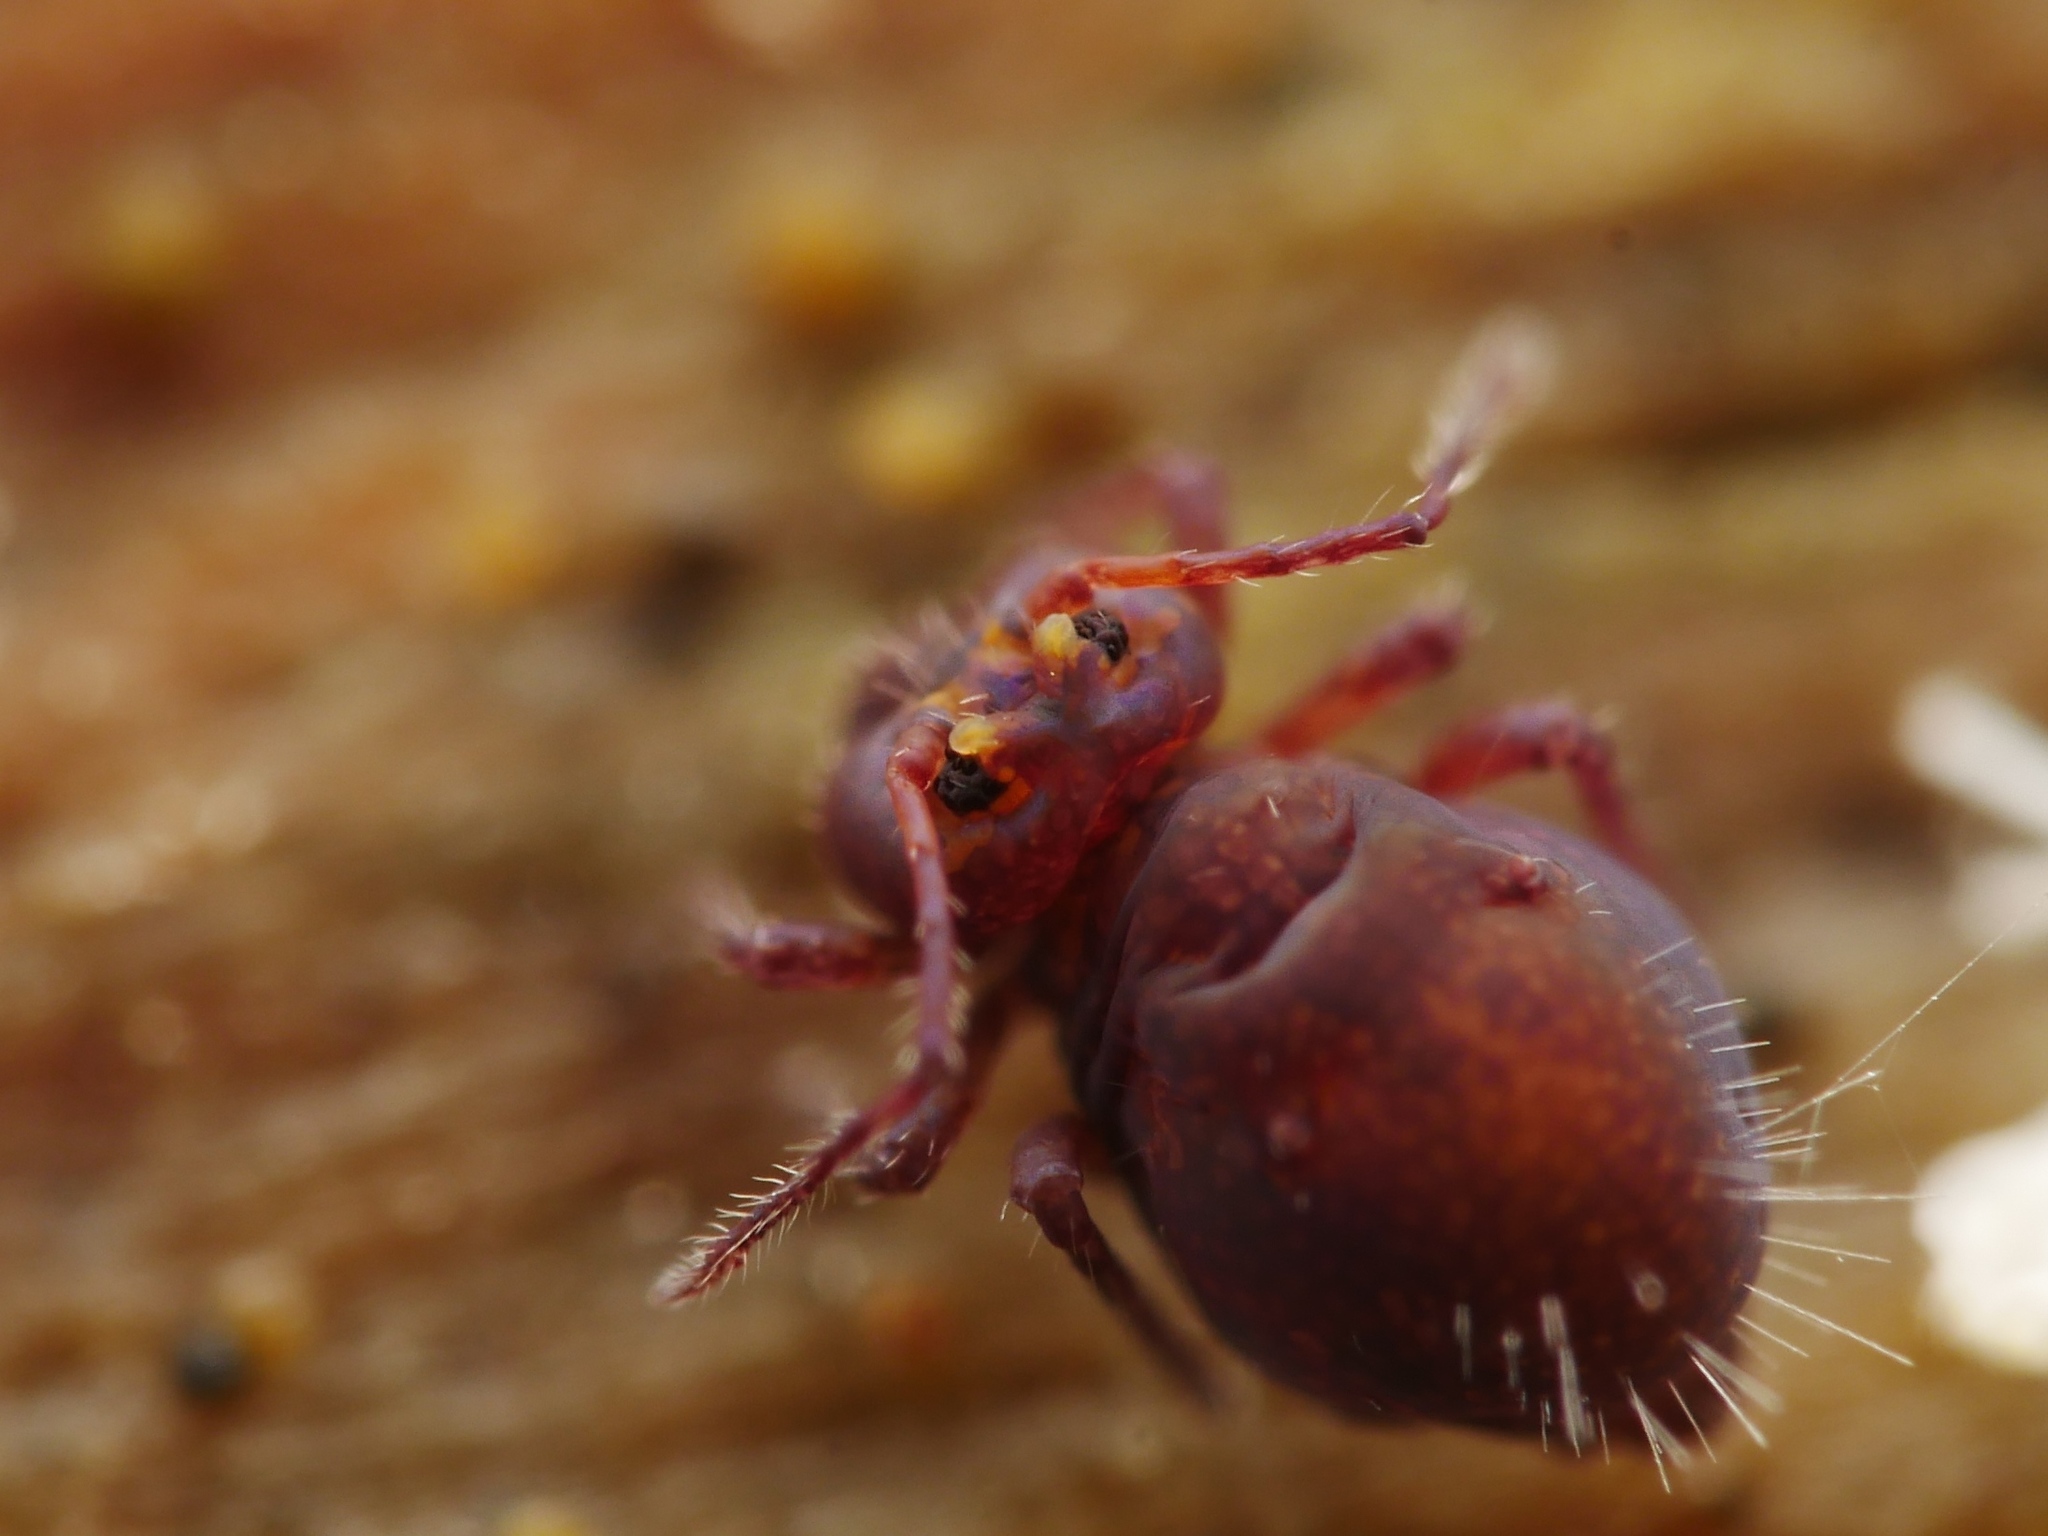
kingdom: Animalia
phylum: Arthropoda
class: Collembola
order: Symphypleona
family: Dicyrtomidae
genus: Dicyrtoma
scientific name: Dicyrtoma fusca
